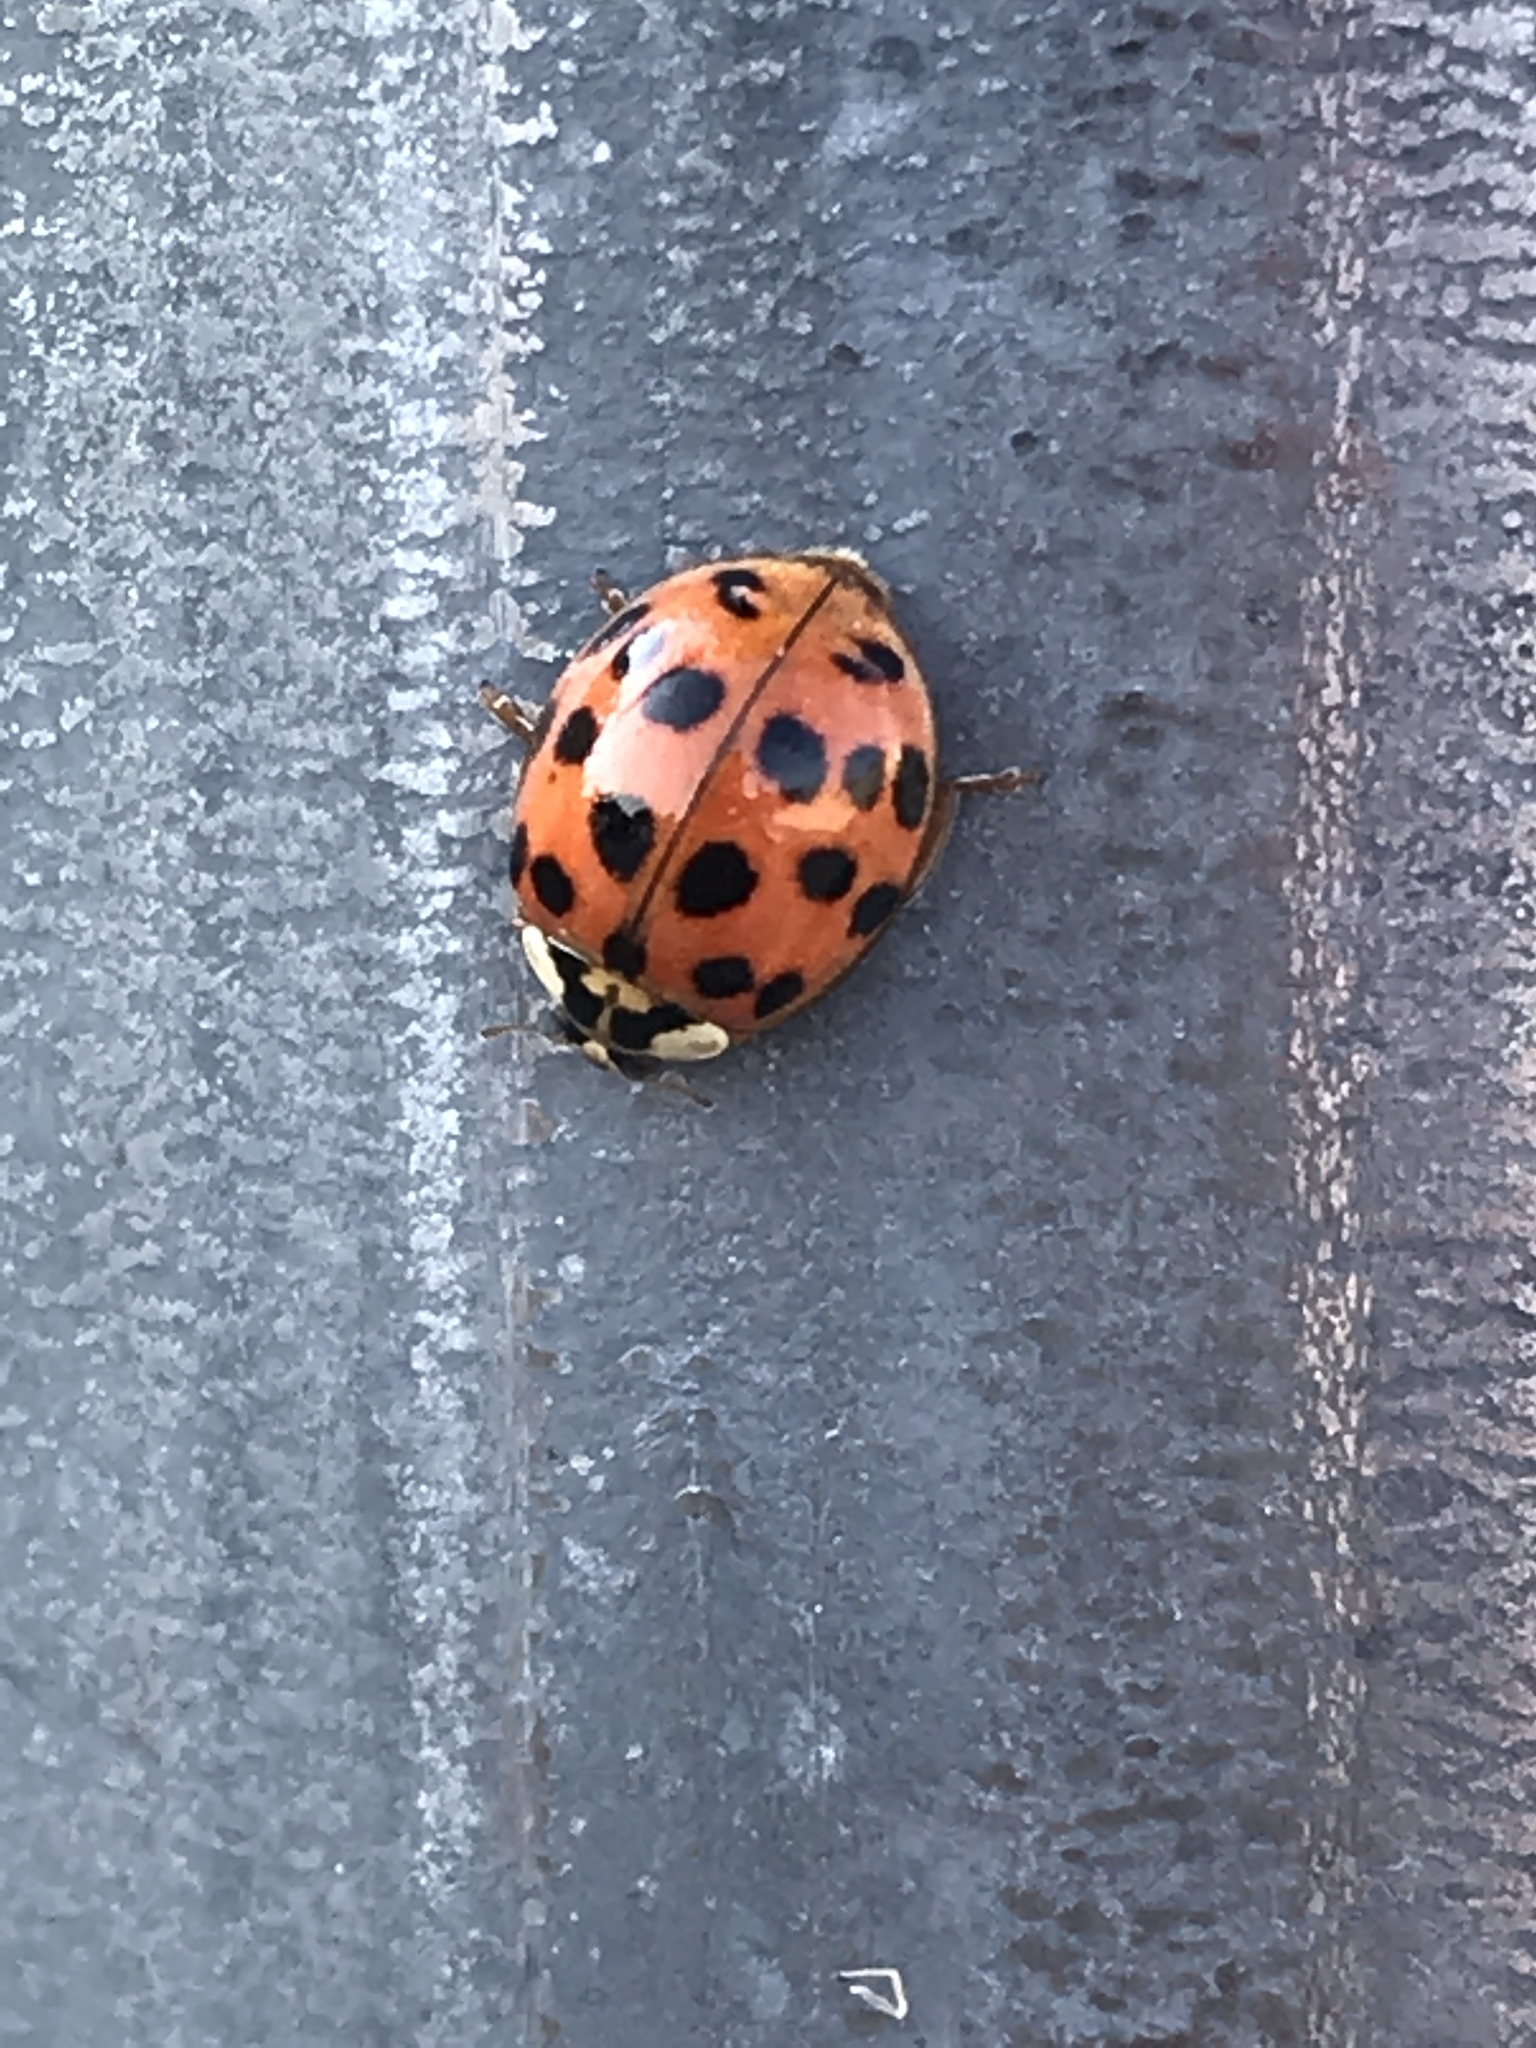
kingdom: Animalia
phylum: Arthropoda
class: Insecta
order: Coleoptera
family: Coccinellidae
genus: Harmonia
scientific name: Harmonia axyridis
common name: Harlequin ladybird
